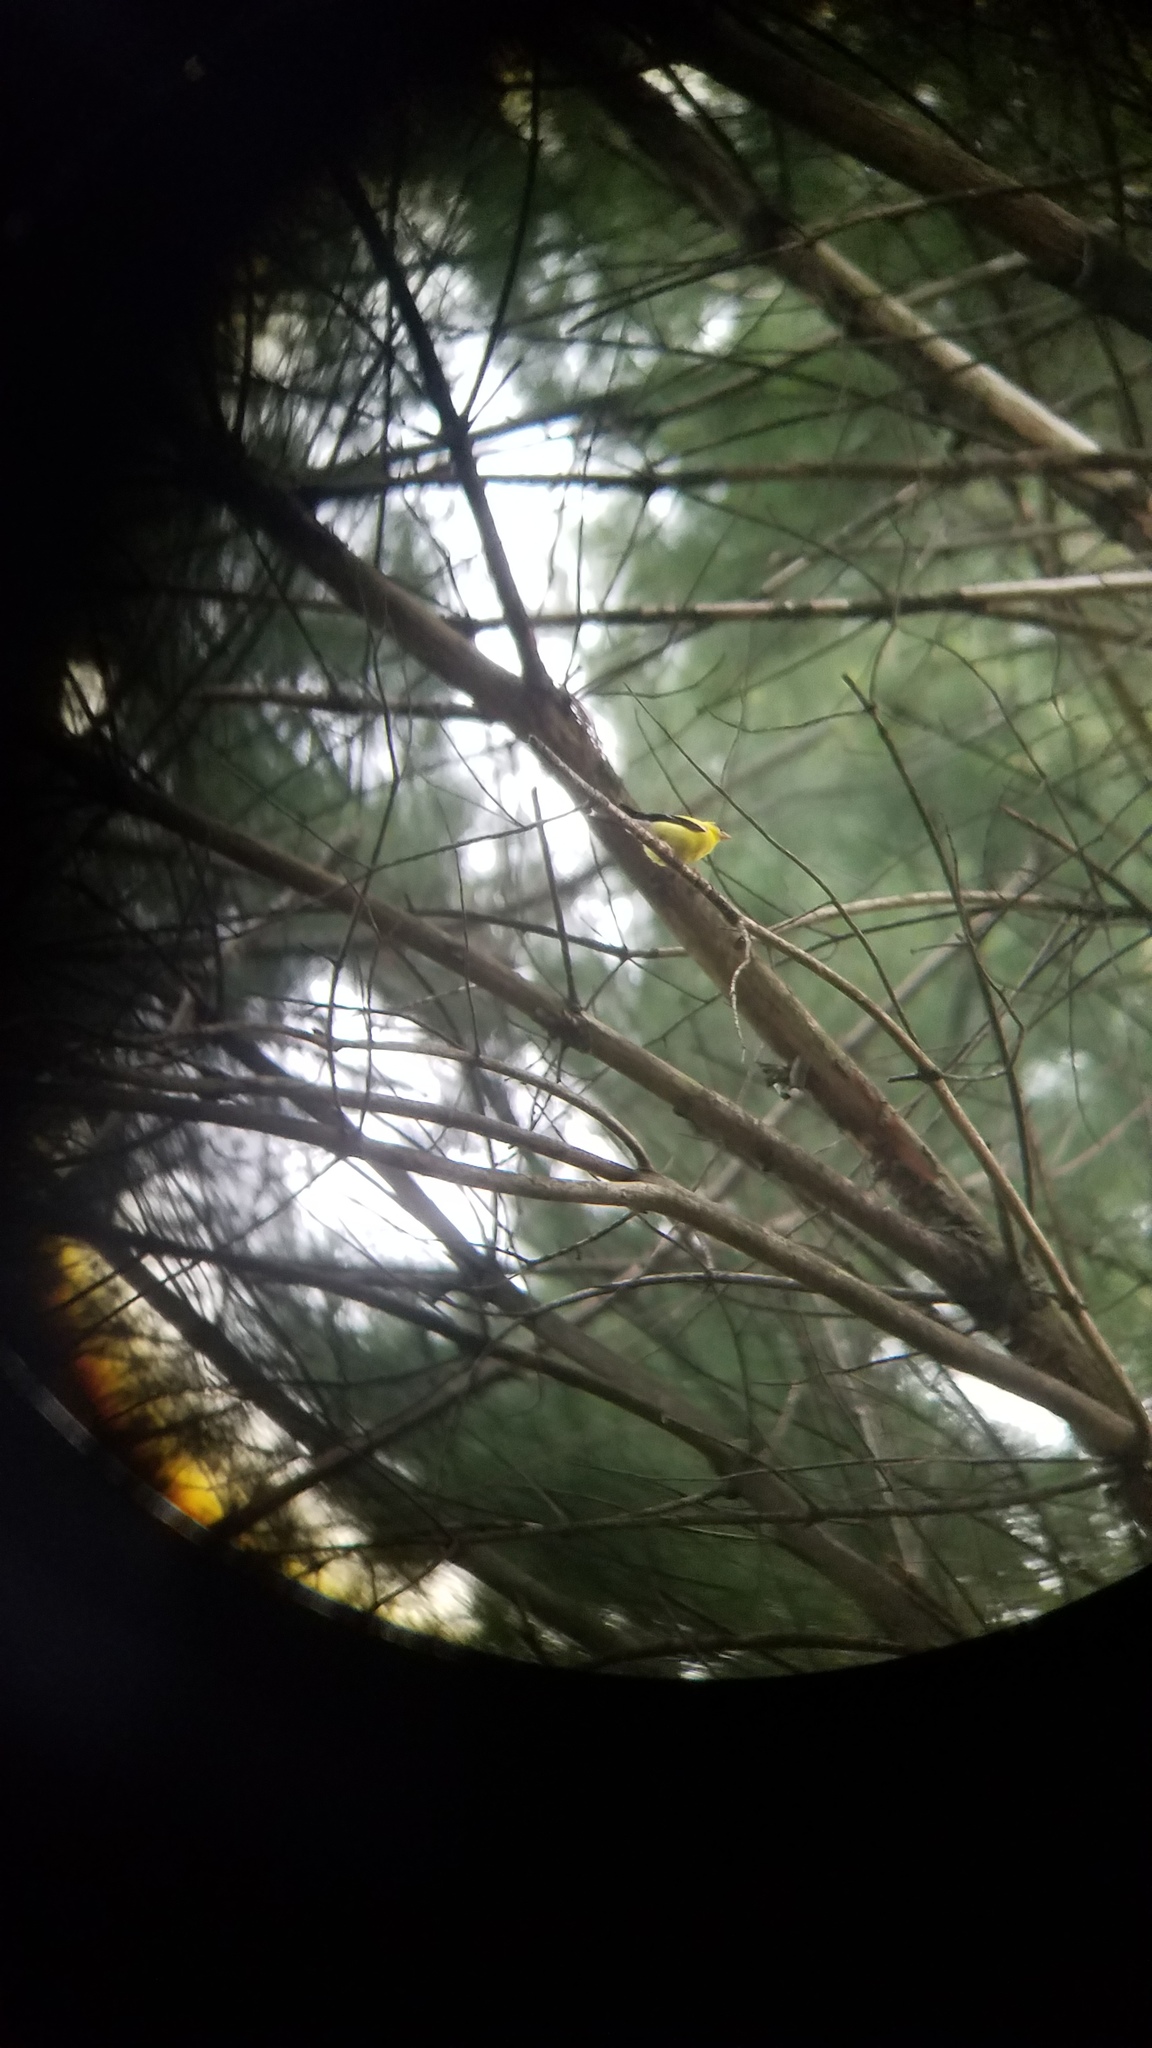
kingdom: Animalia
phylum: Chordata
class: Aves
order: Passeriformes
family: Fringillidae
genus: Spinus
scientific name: Spinus tristis
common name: American goldfinch
